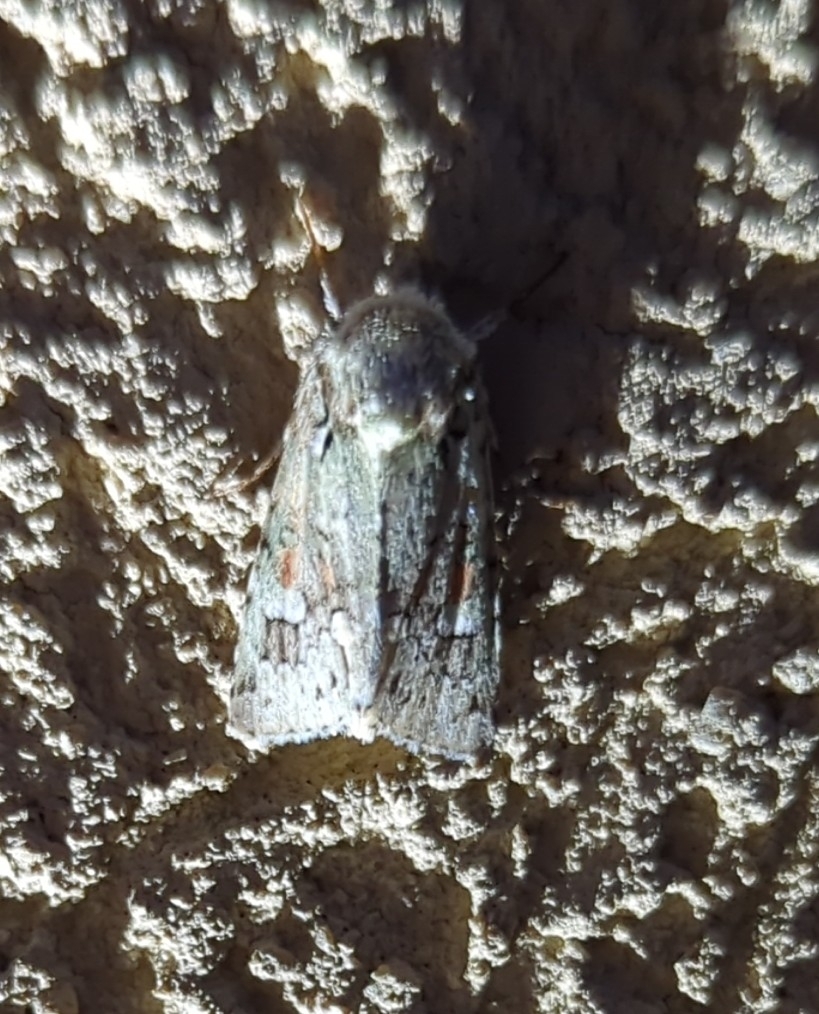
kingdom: Animalia
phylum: Arthropoda
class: Insecta
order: Lepidoptera
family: Noctuidae
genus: Lacinipolia
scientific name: Lacinipolia laudabilis
